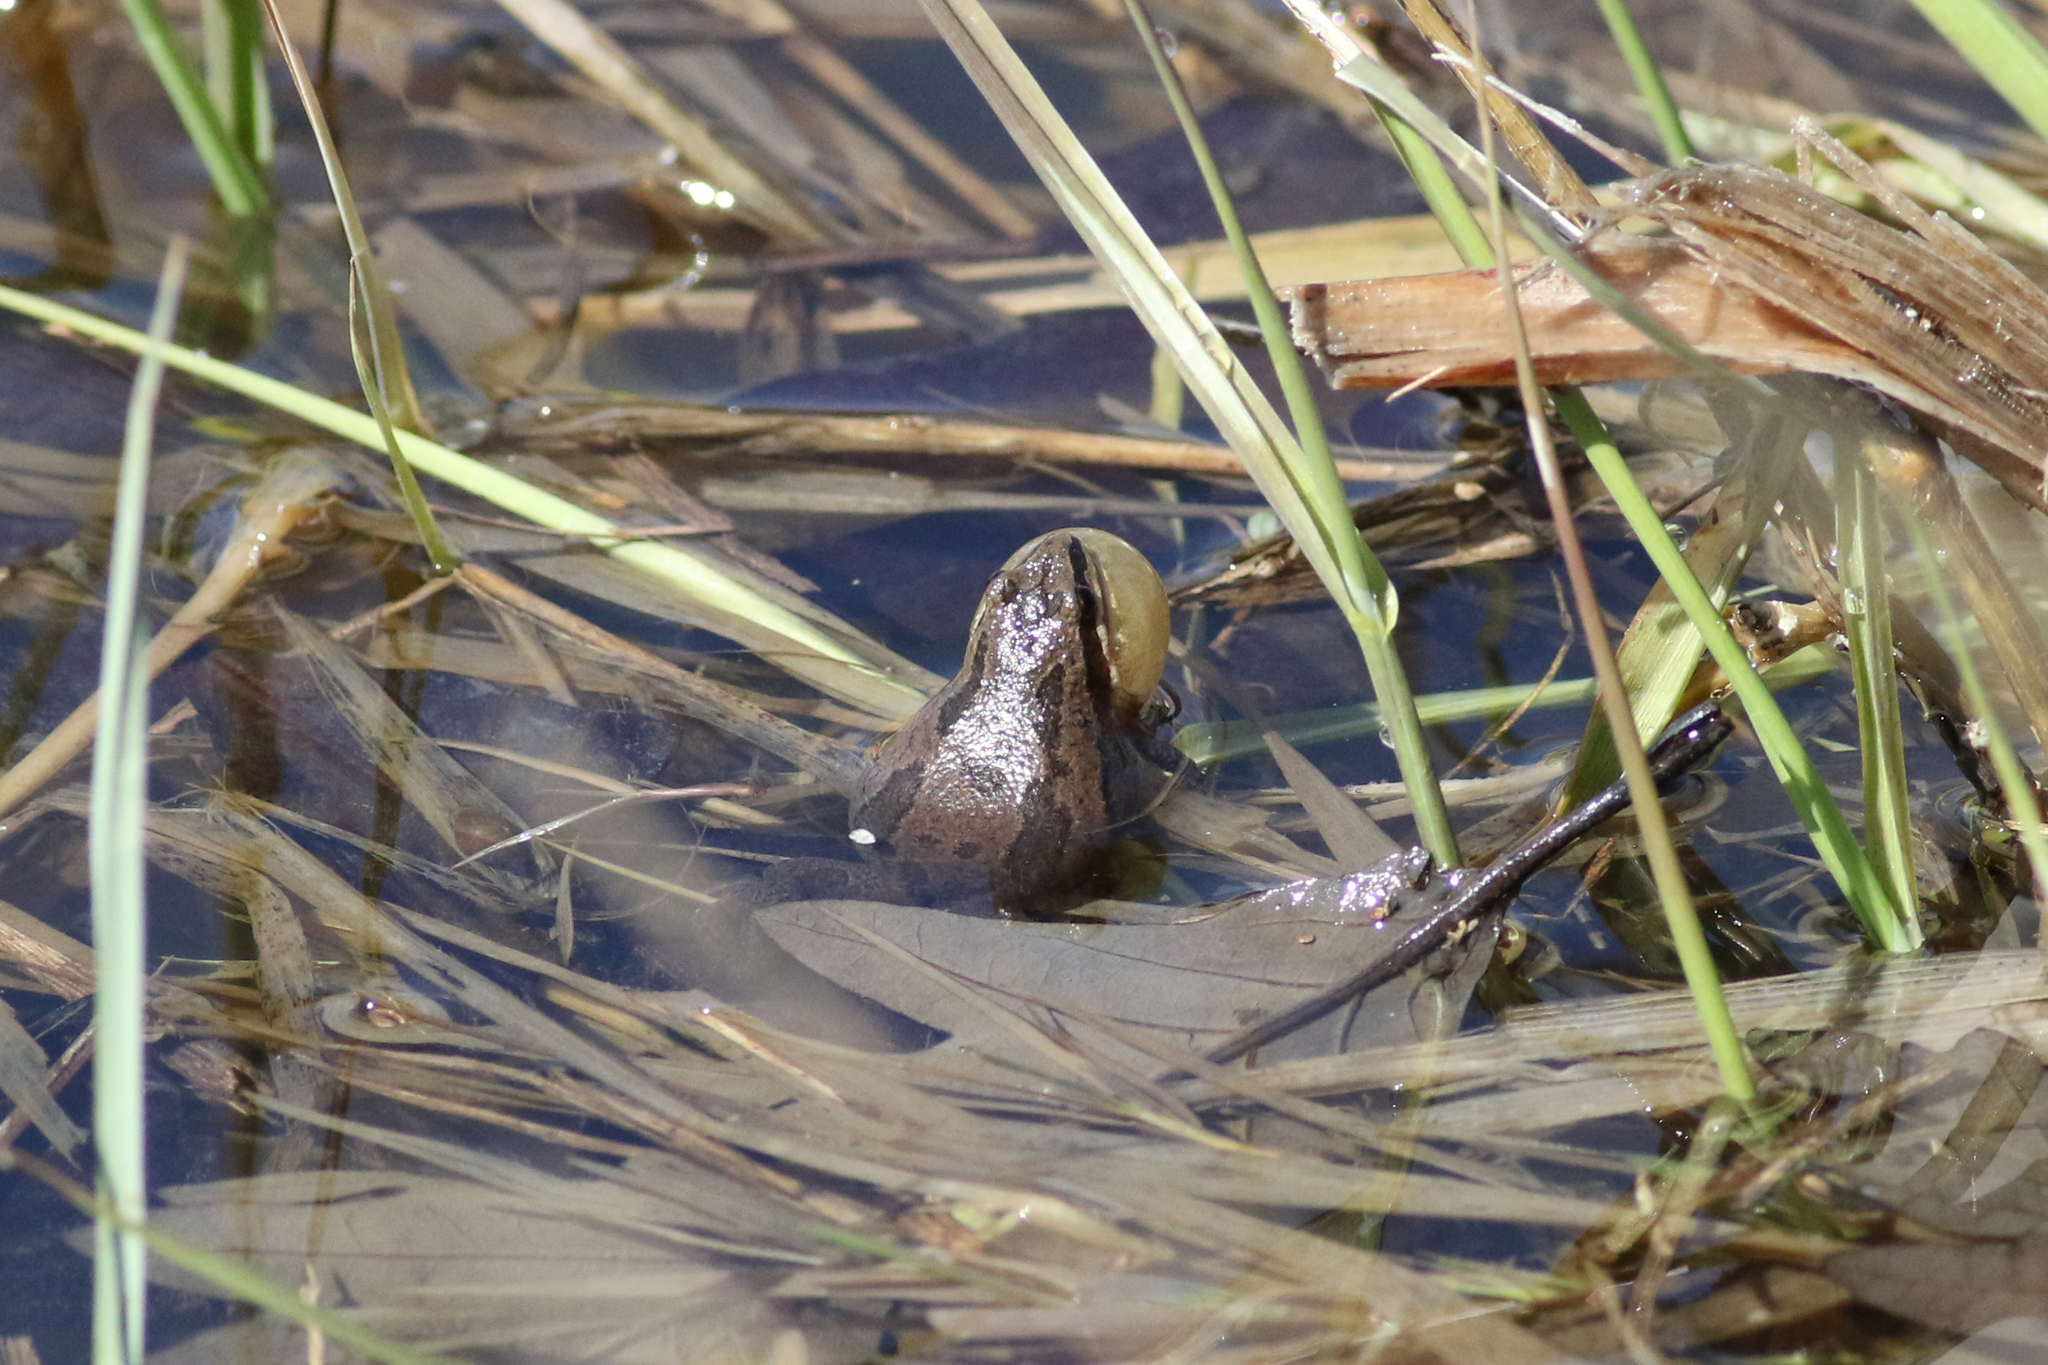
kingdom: Animalia
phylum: Chordata
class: Amphibia
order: Anura
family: Hylidae
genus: Pseudacris
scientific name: Pseudacris triseriata
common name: Western chorus frog
